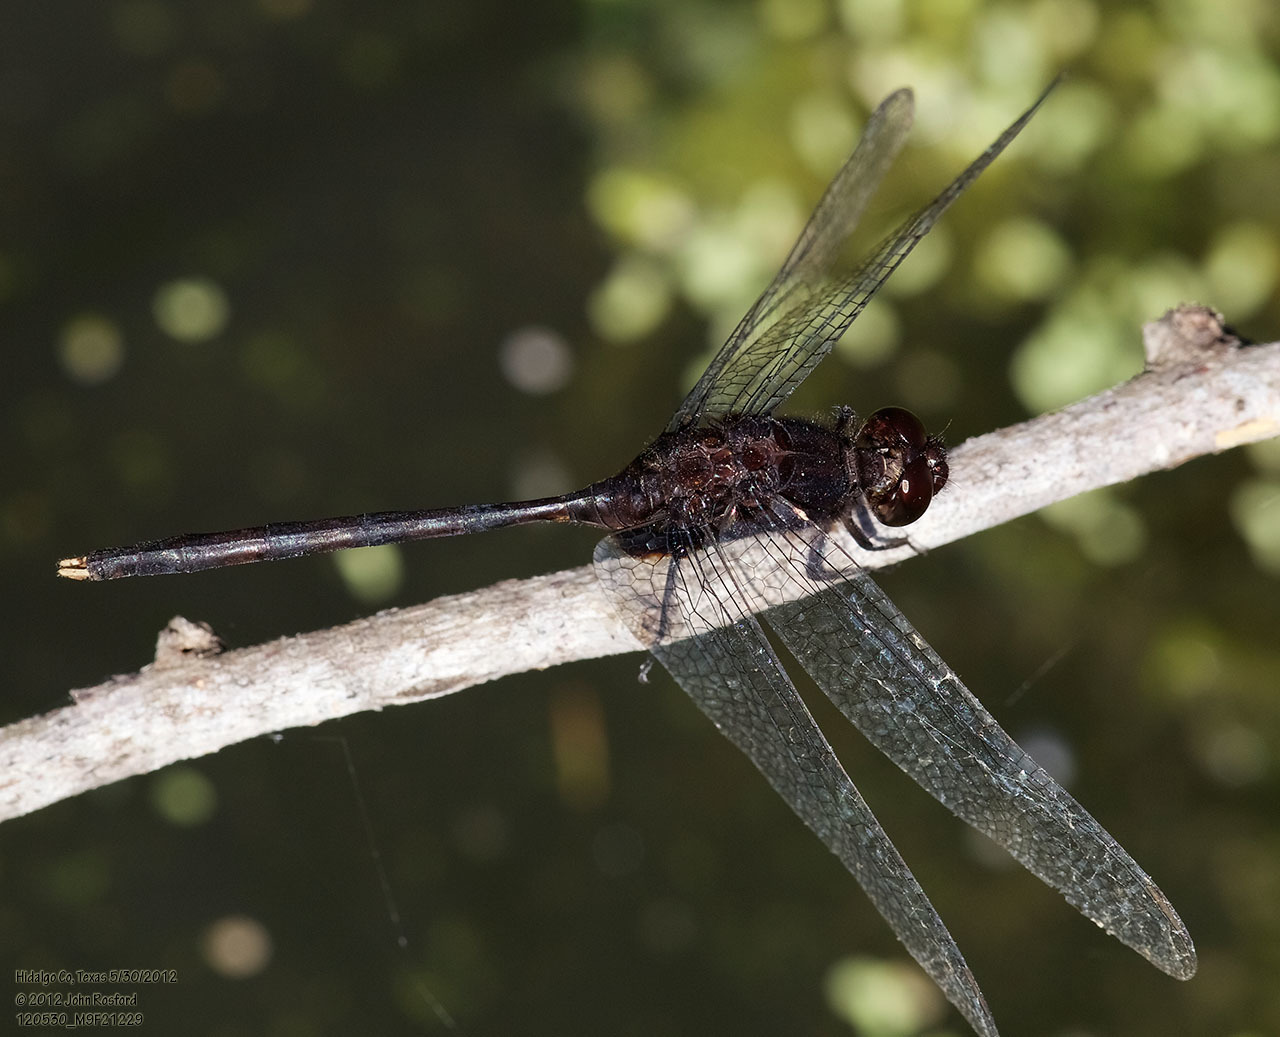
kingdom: Animalia
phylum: Arthropoda
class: Insecta
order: Odonata
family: Libellulidae
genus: Erythemis
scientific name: Erythemis plebeja
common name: Pin-tailed pondhawk
